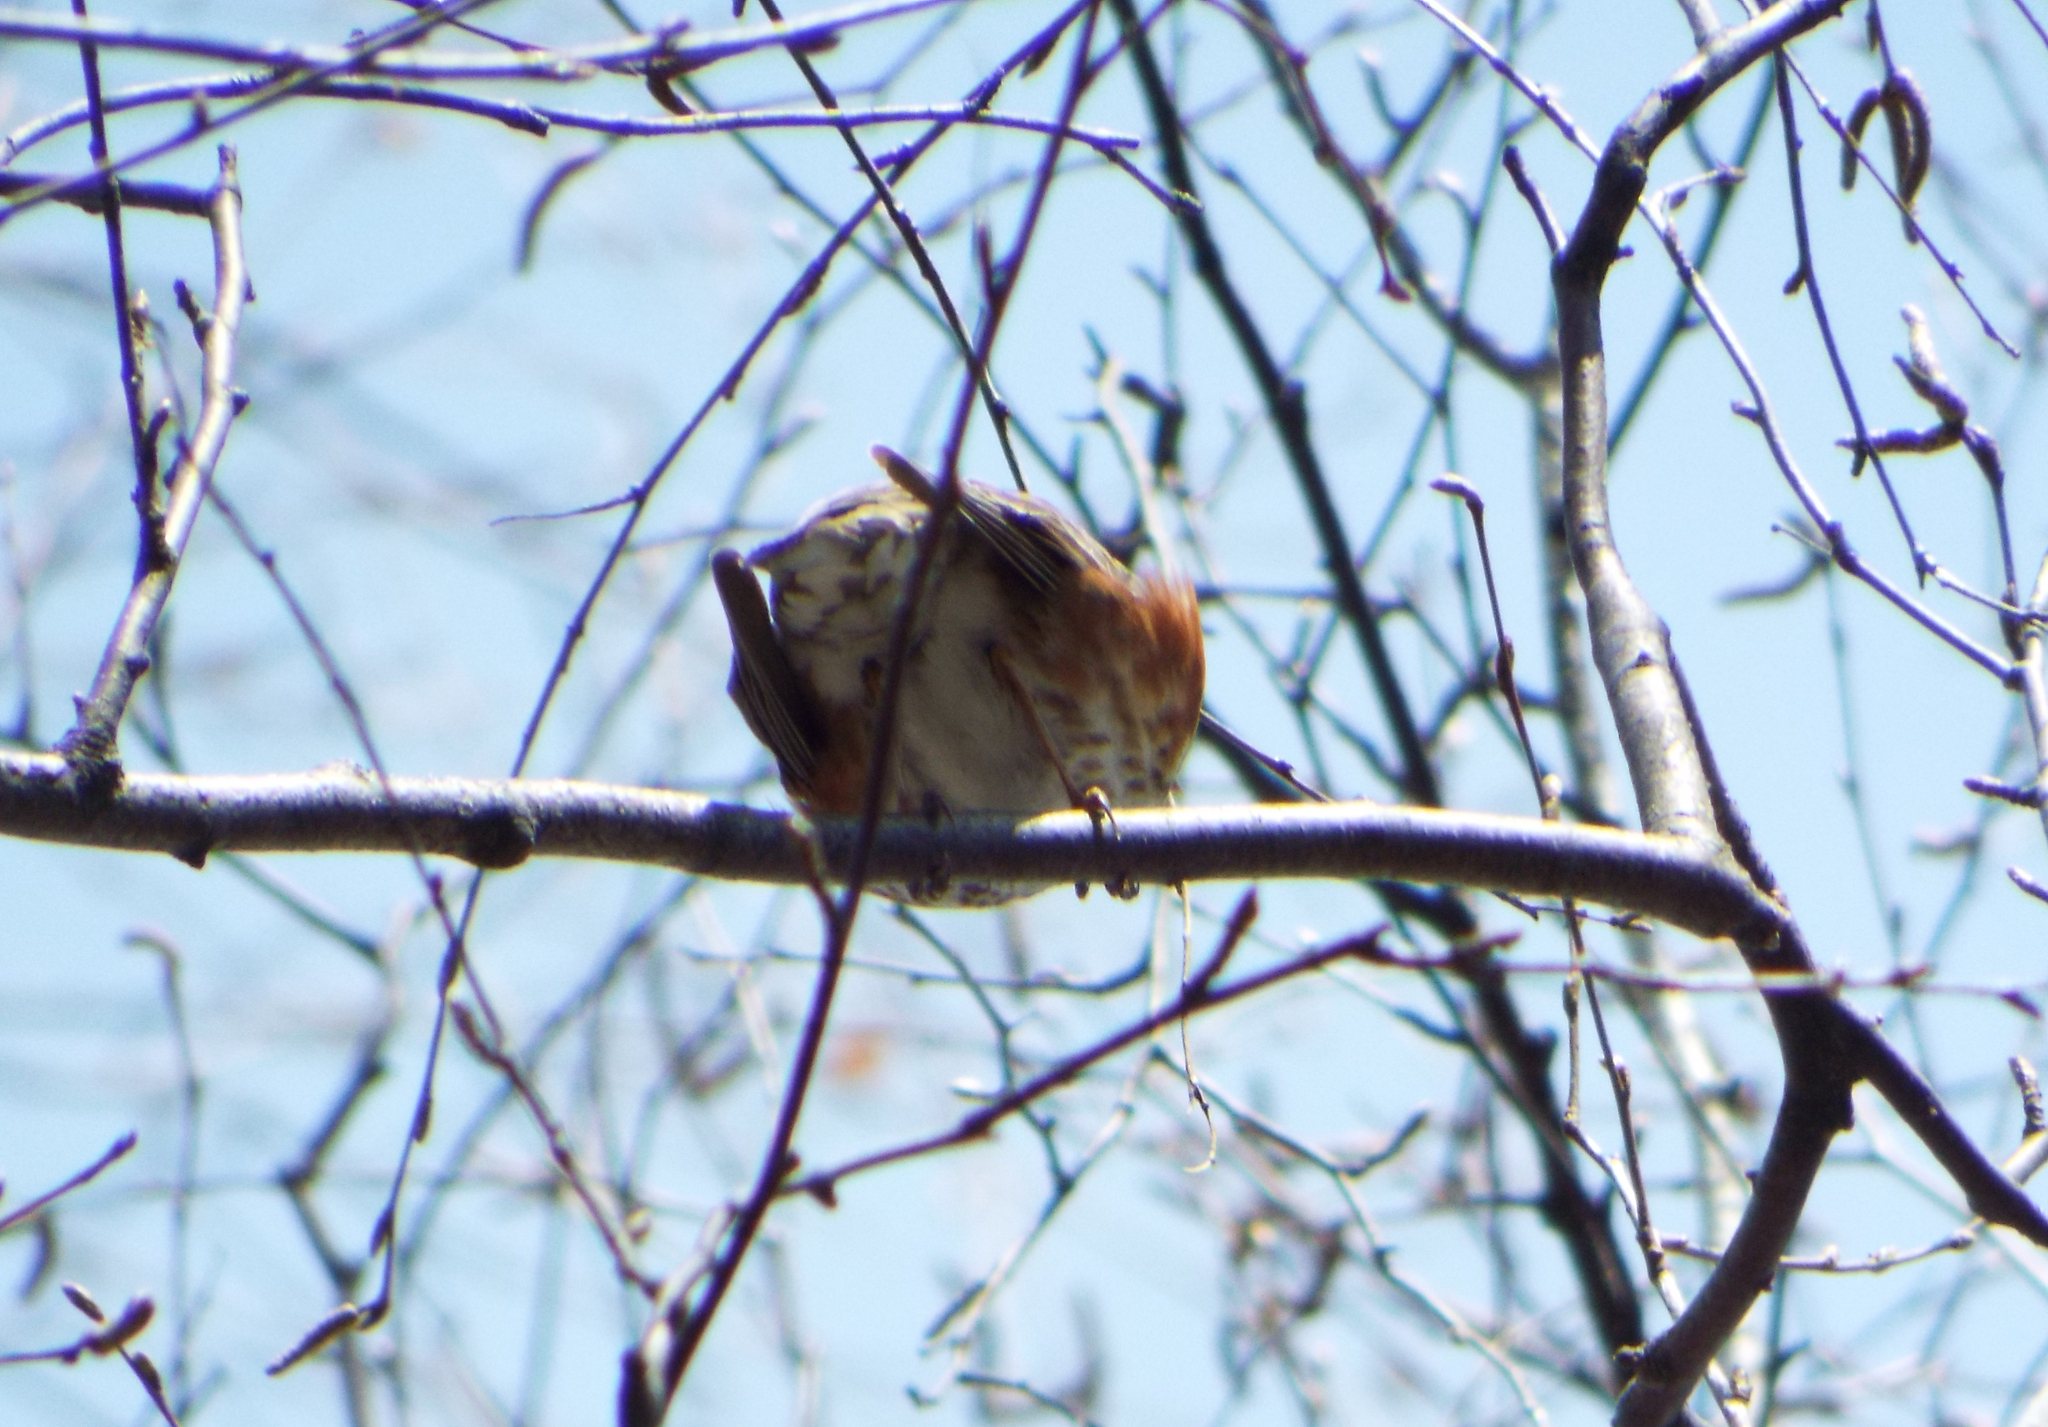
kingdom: Animalia
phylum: Chordata
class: Aves
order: Passeriformes
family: Turdidae
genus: Turdus
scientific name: Turdus iliacus
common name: Redwing
